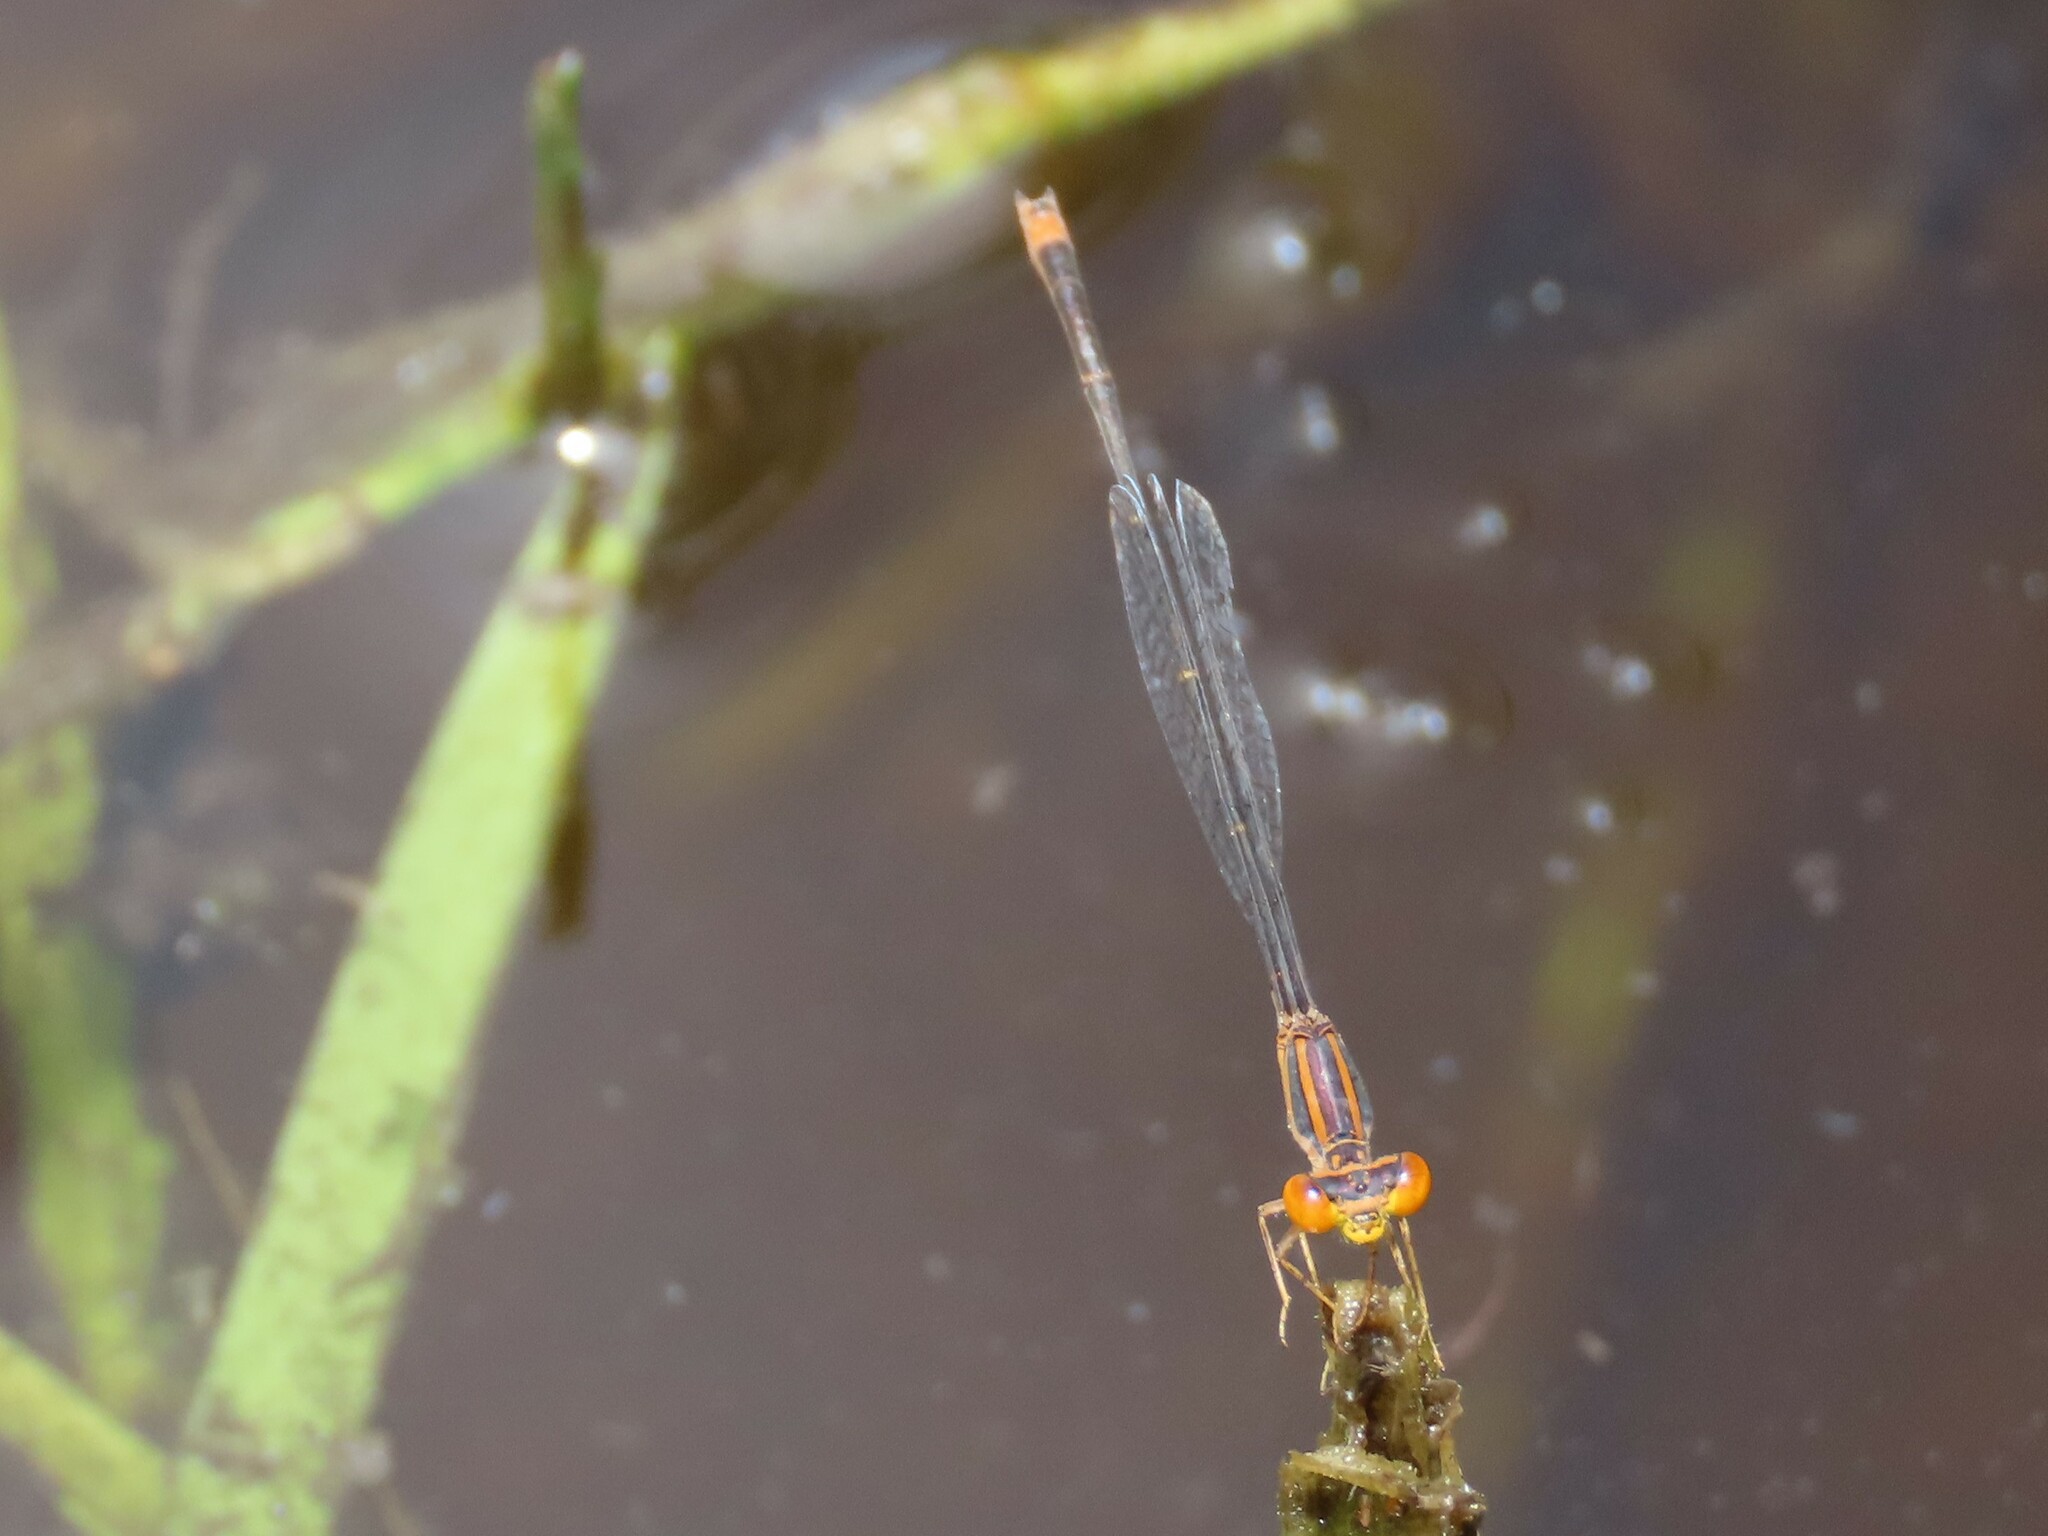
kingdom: Animalia
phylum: Arthropoda
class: Insecta
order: Odonata
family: Coenagrionidae
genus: Enallagma
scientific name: Enallagma pollutum
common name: Florida bluet
